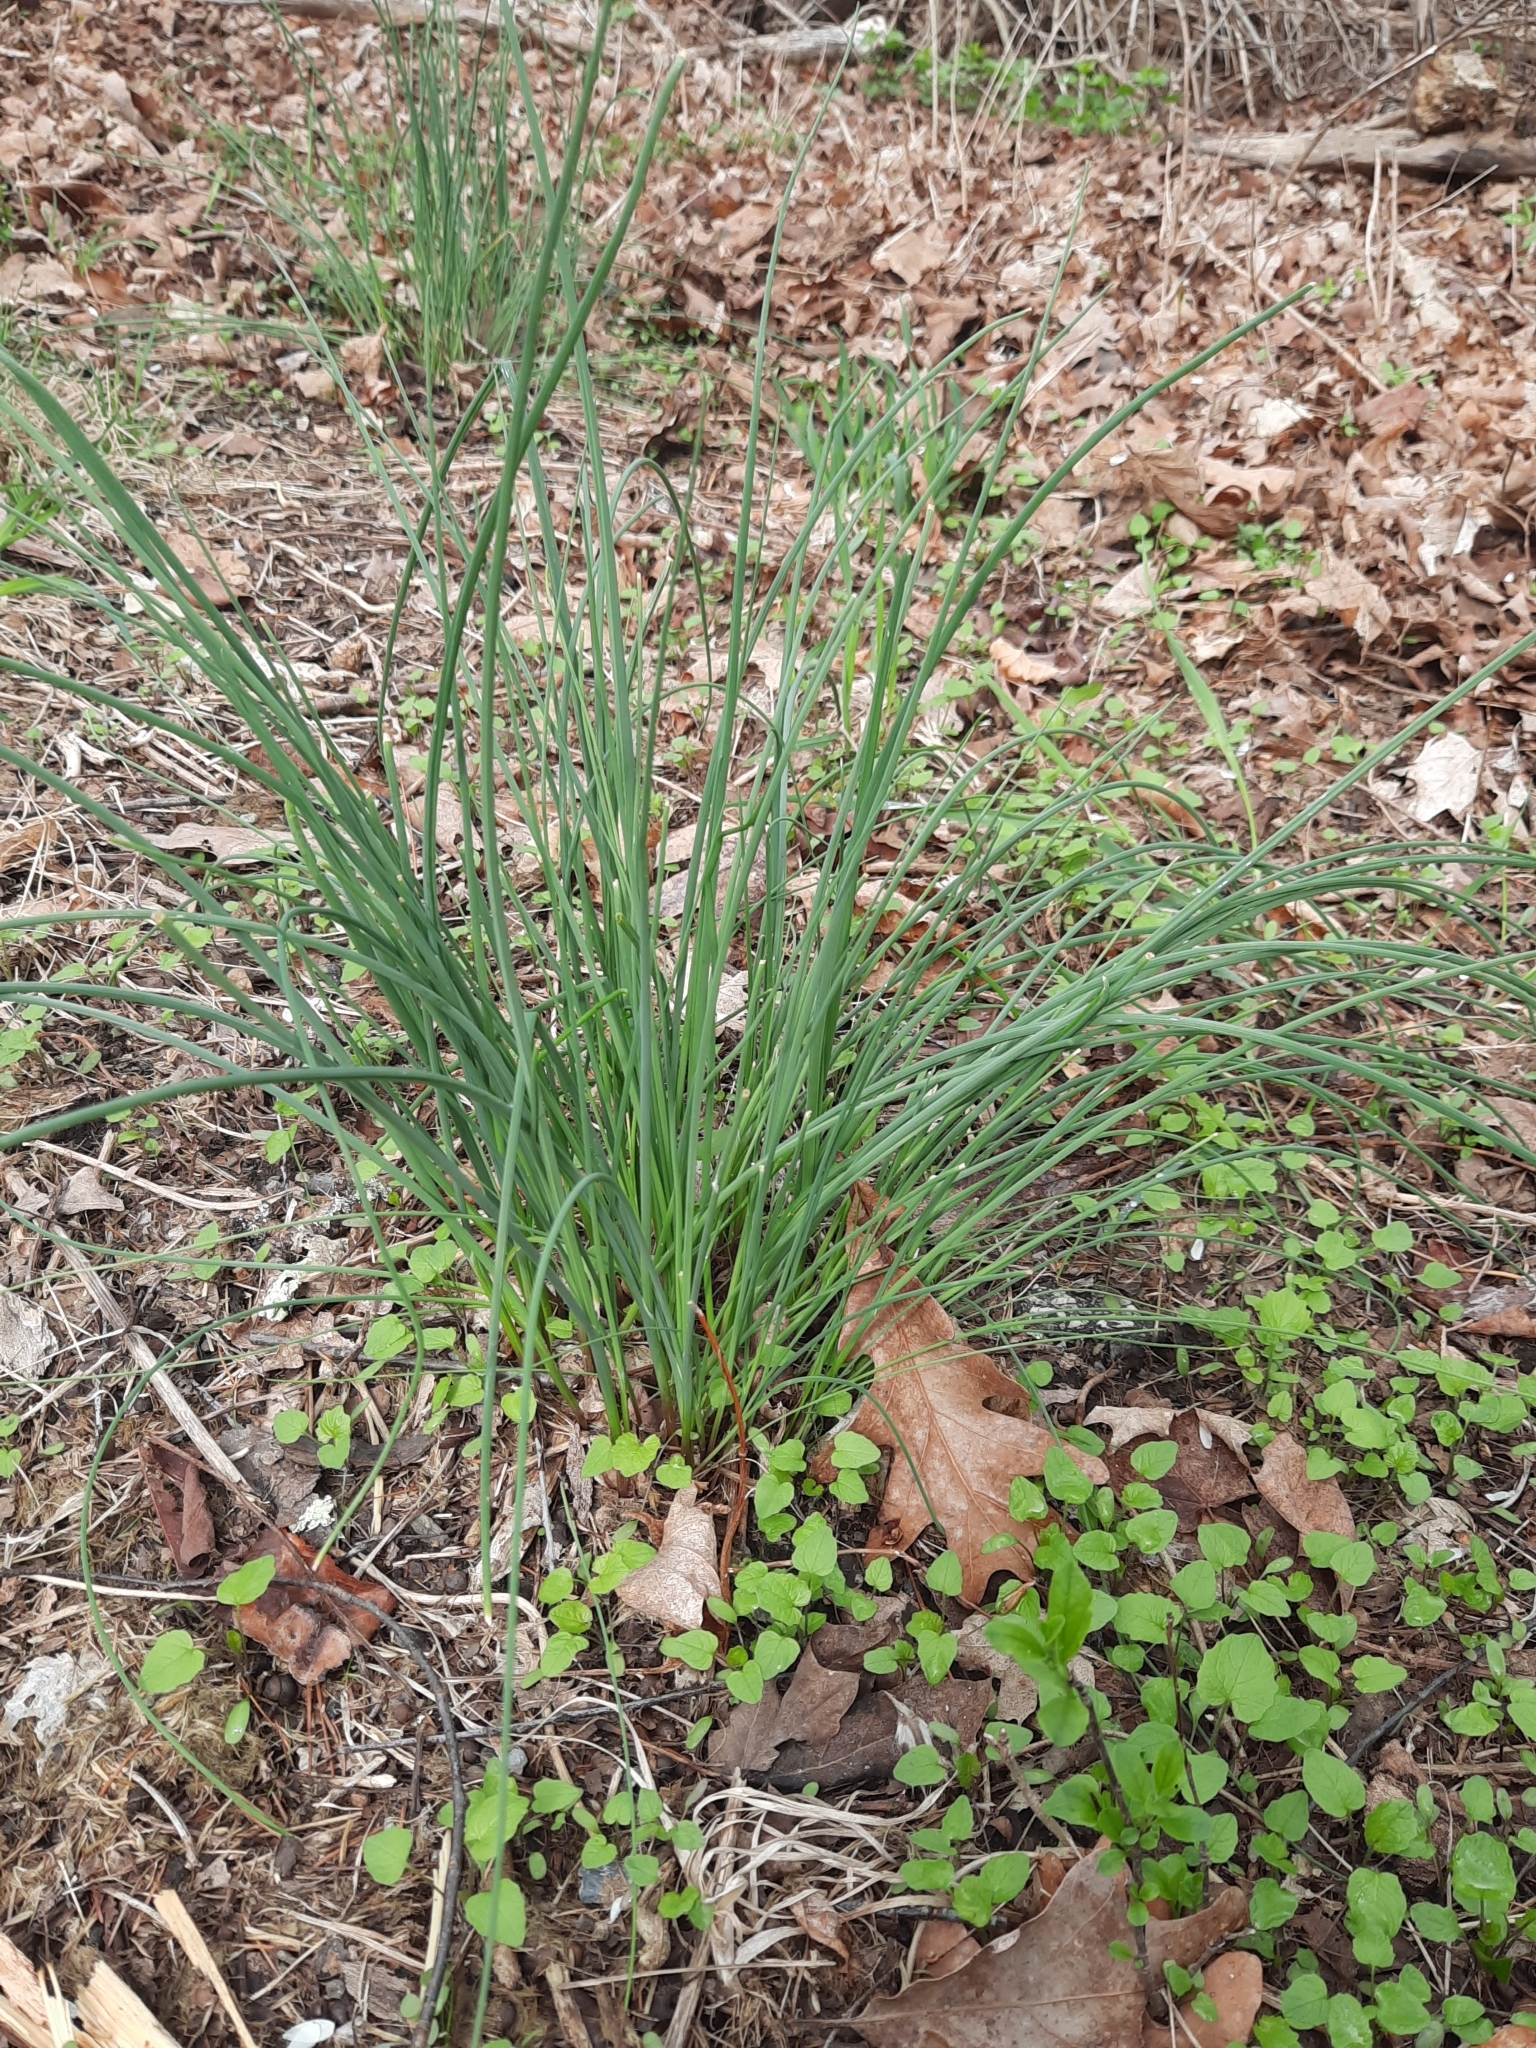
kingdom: Plantae
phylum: Tracheophyta
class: Liliopsida
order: Asparagales
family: Amaryllidaceae
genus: Allium
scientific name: Allium vineale
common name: Crow garlic
